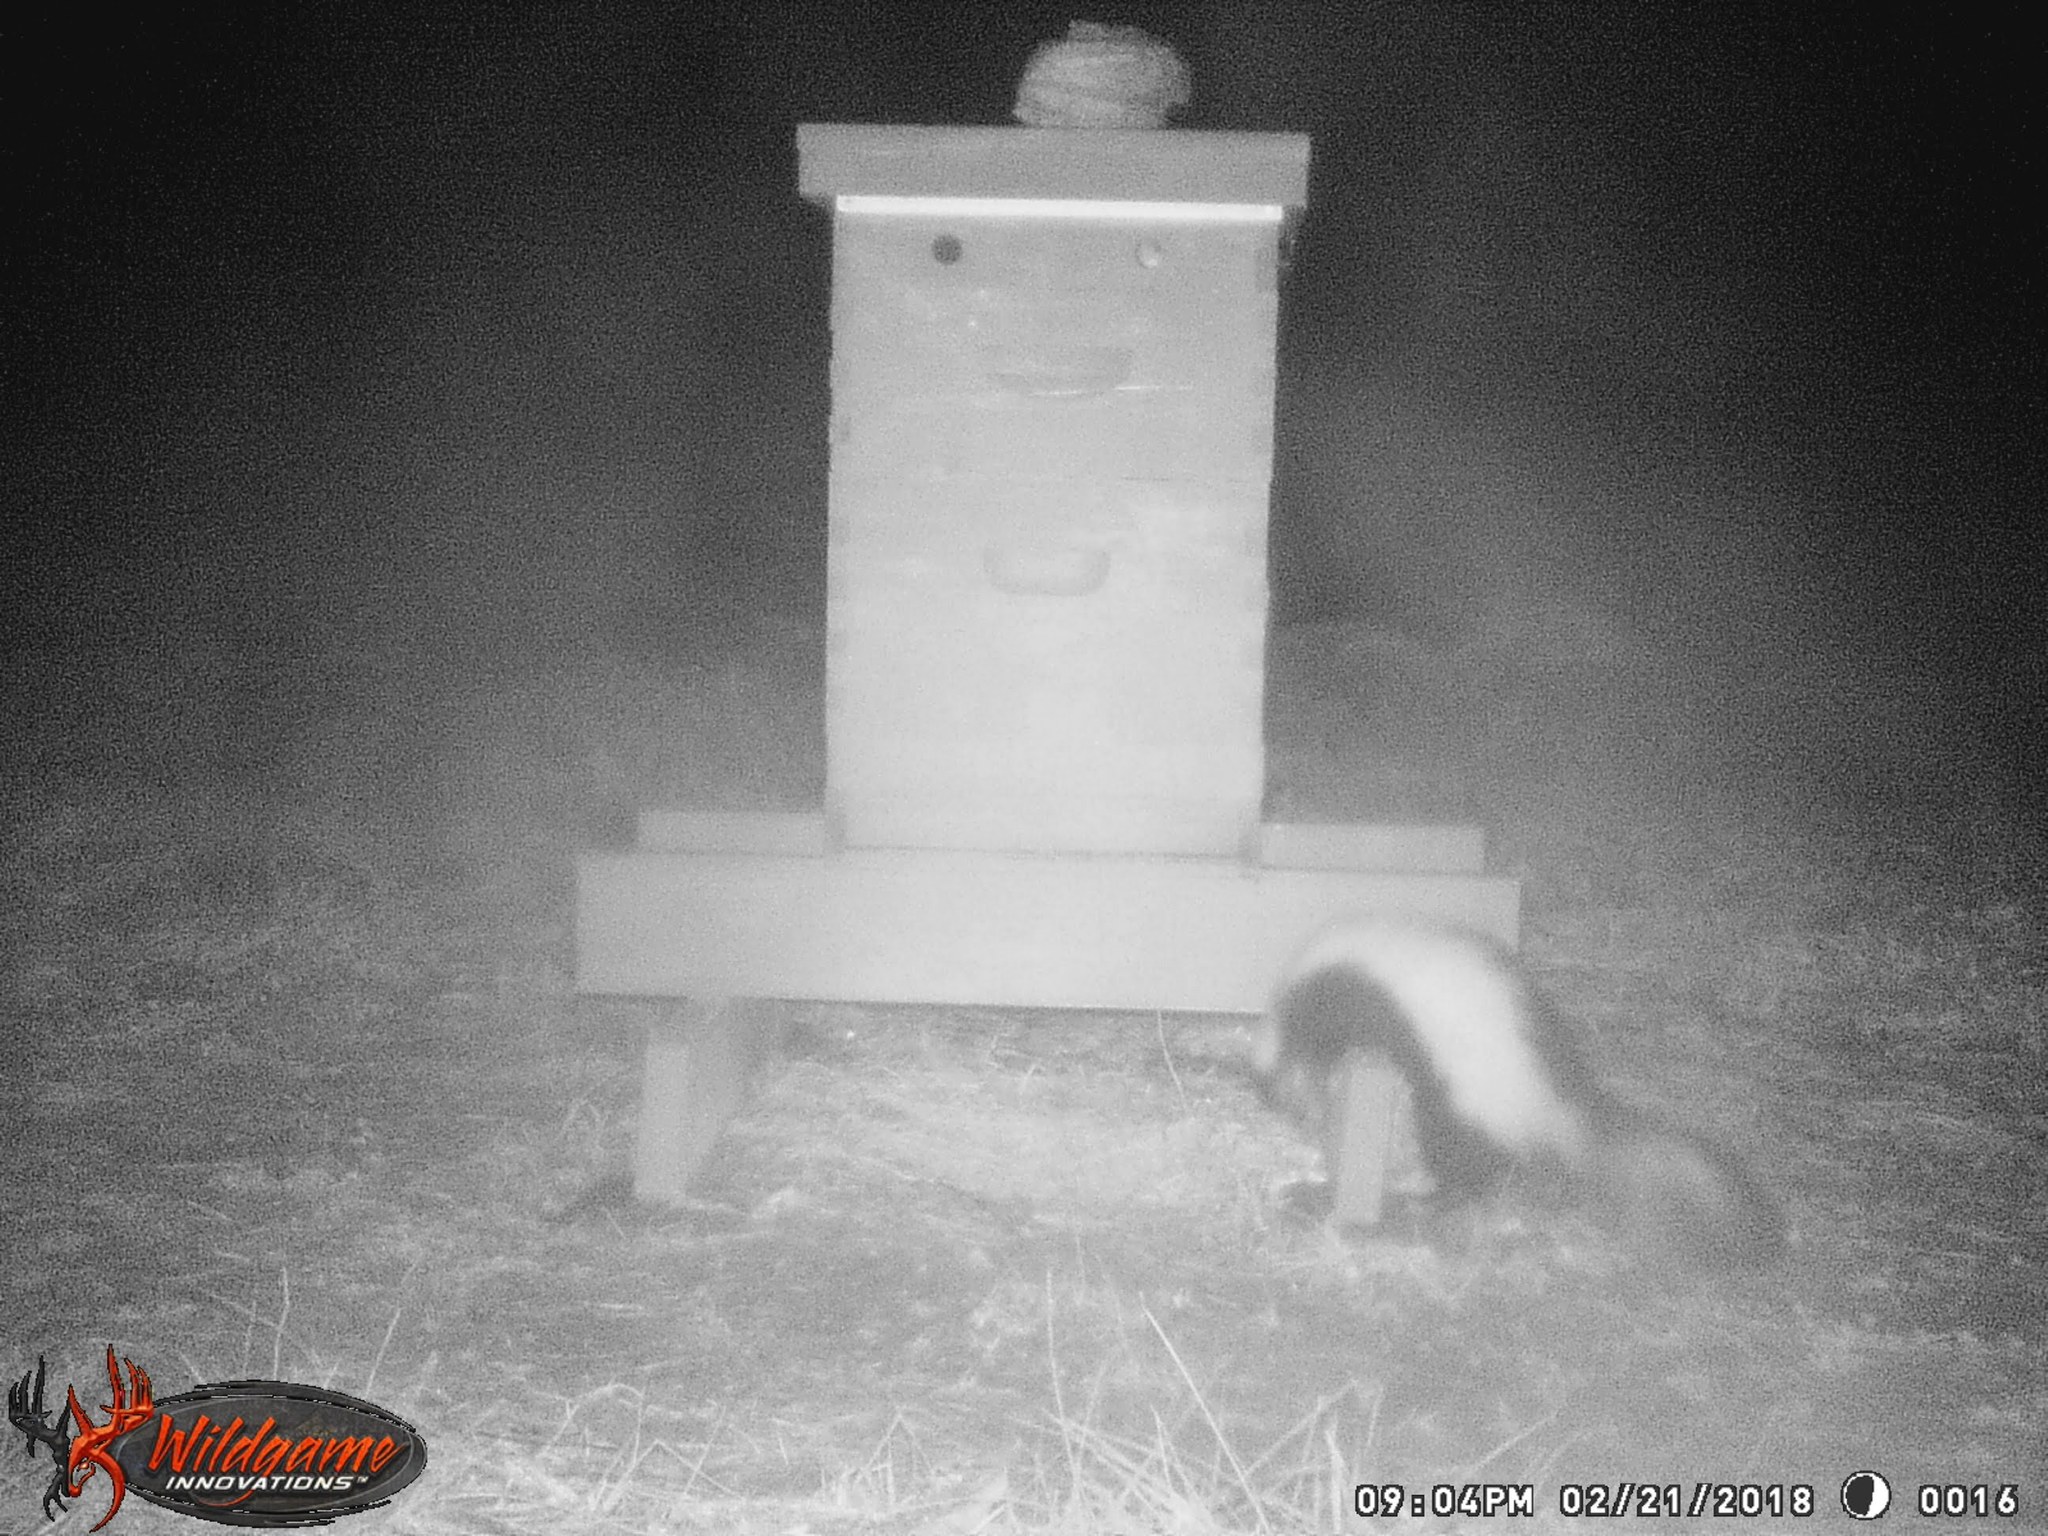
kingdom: Animalia
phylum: Chordata
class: Mammalia
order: Carnivora
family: Mephitidae
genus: Mephitis
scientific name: Mephitis mephitis
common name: Striped skunk
